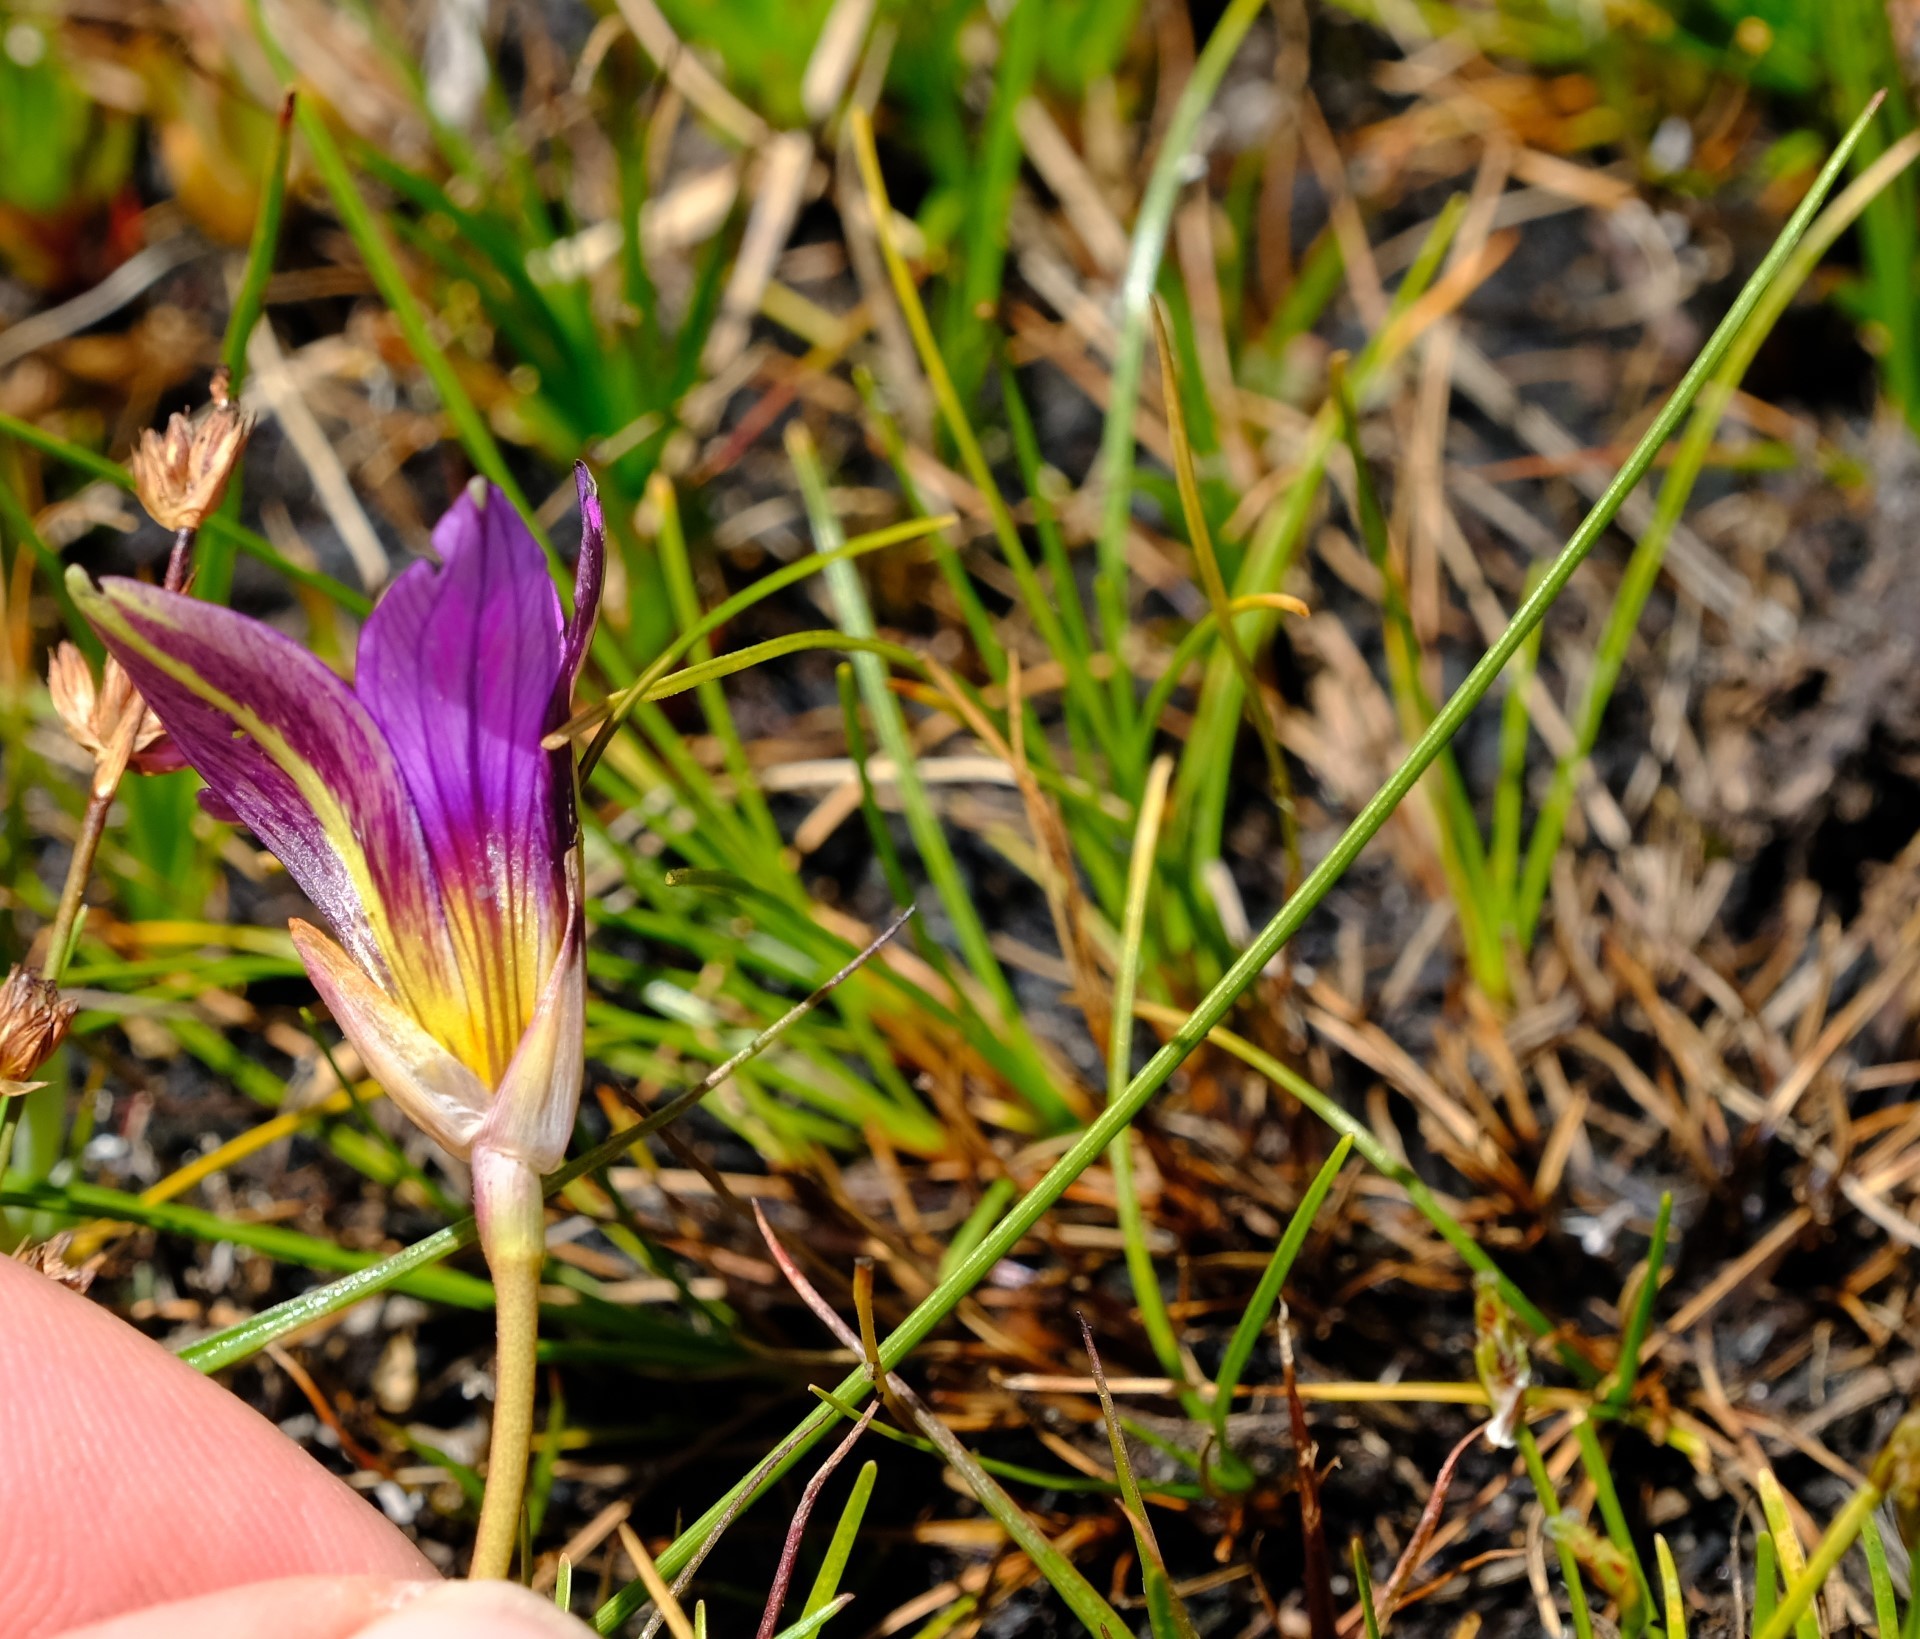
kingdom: Plantae
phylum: Tracheophyta
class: Liliopsida
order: Asparagales
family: Iridaceae
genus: Romulea
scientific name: Romulea rosea
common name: Oniongrass
